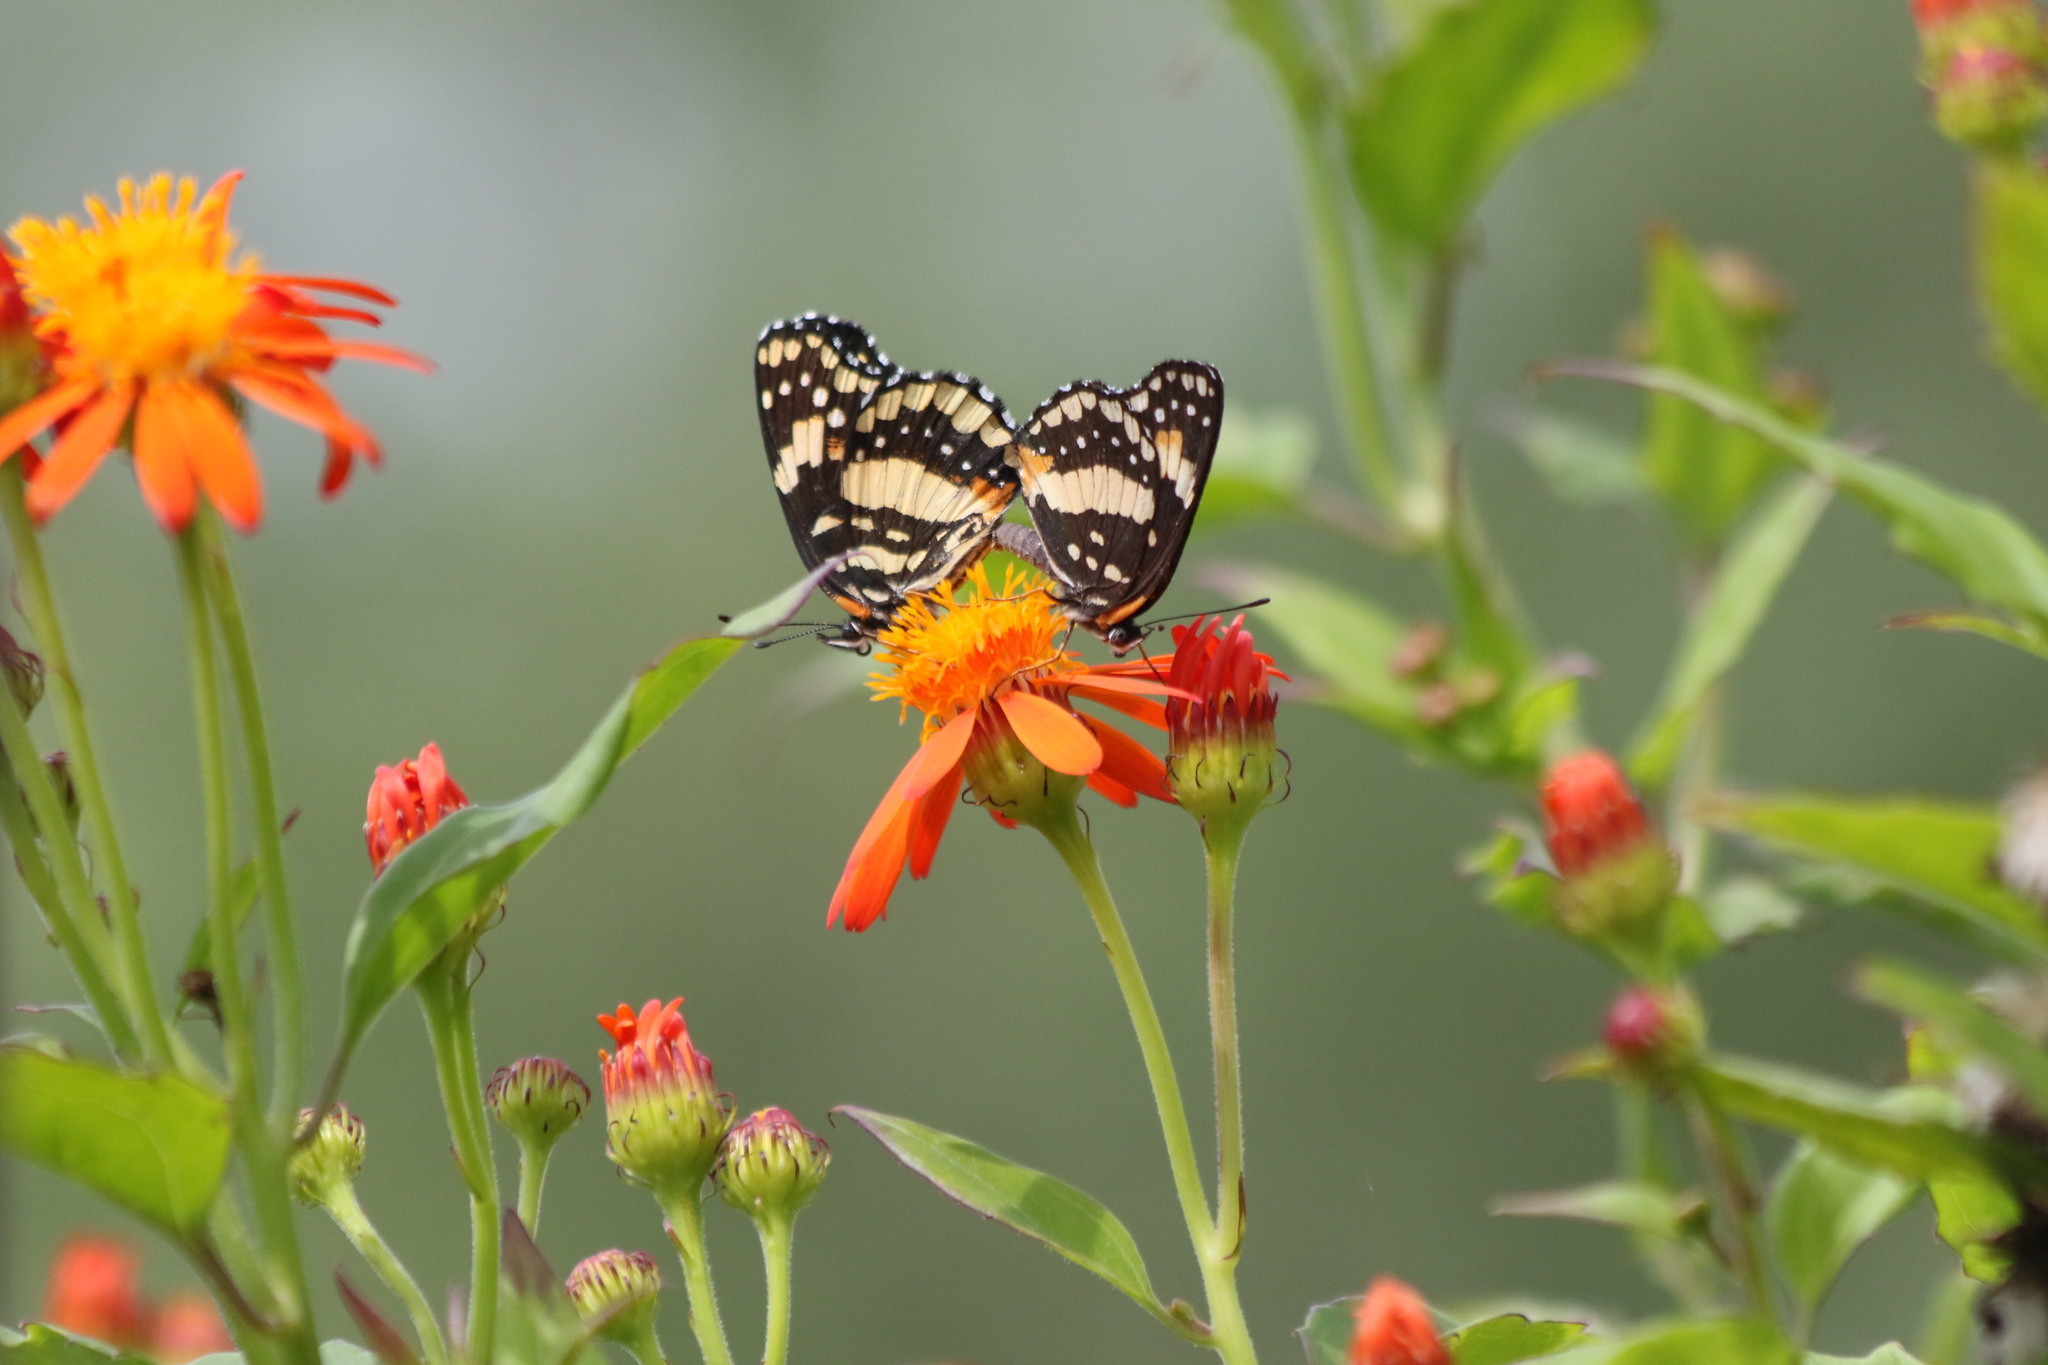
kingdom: Animalia
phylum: Arthropoda
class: Insecta
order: Lepidoptera
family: Nymphalidae
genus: Chlosyne
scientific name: Chlosyne lacinia
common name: Bordered patch
